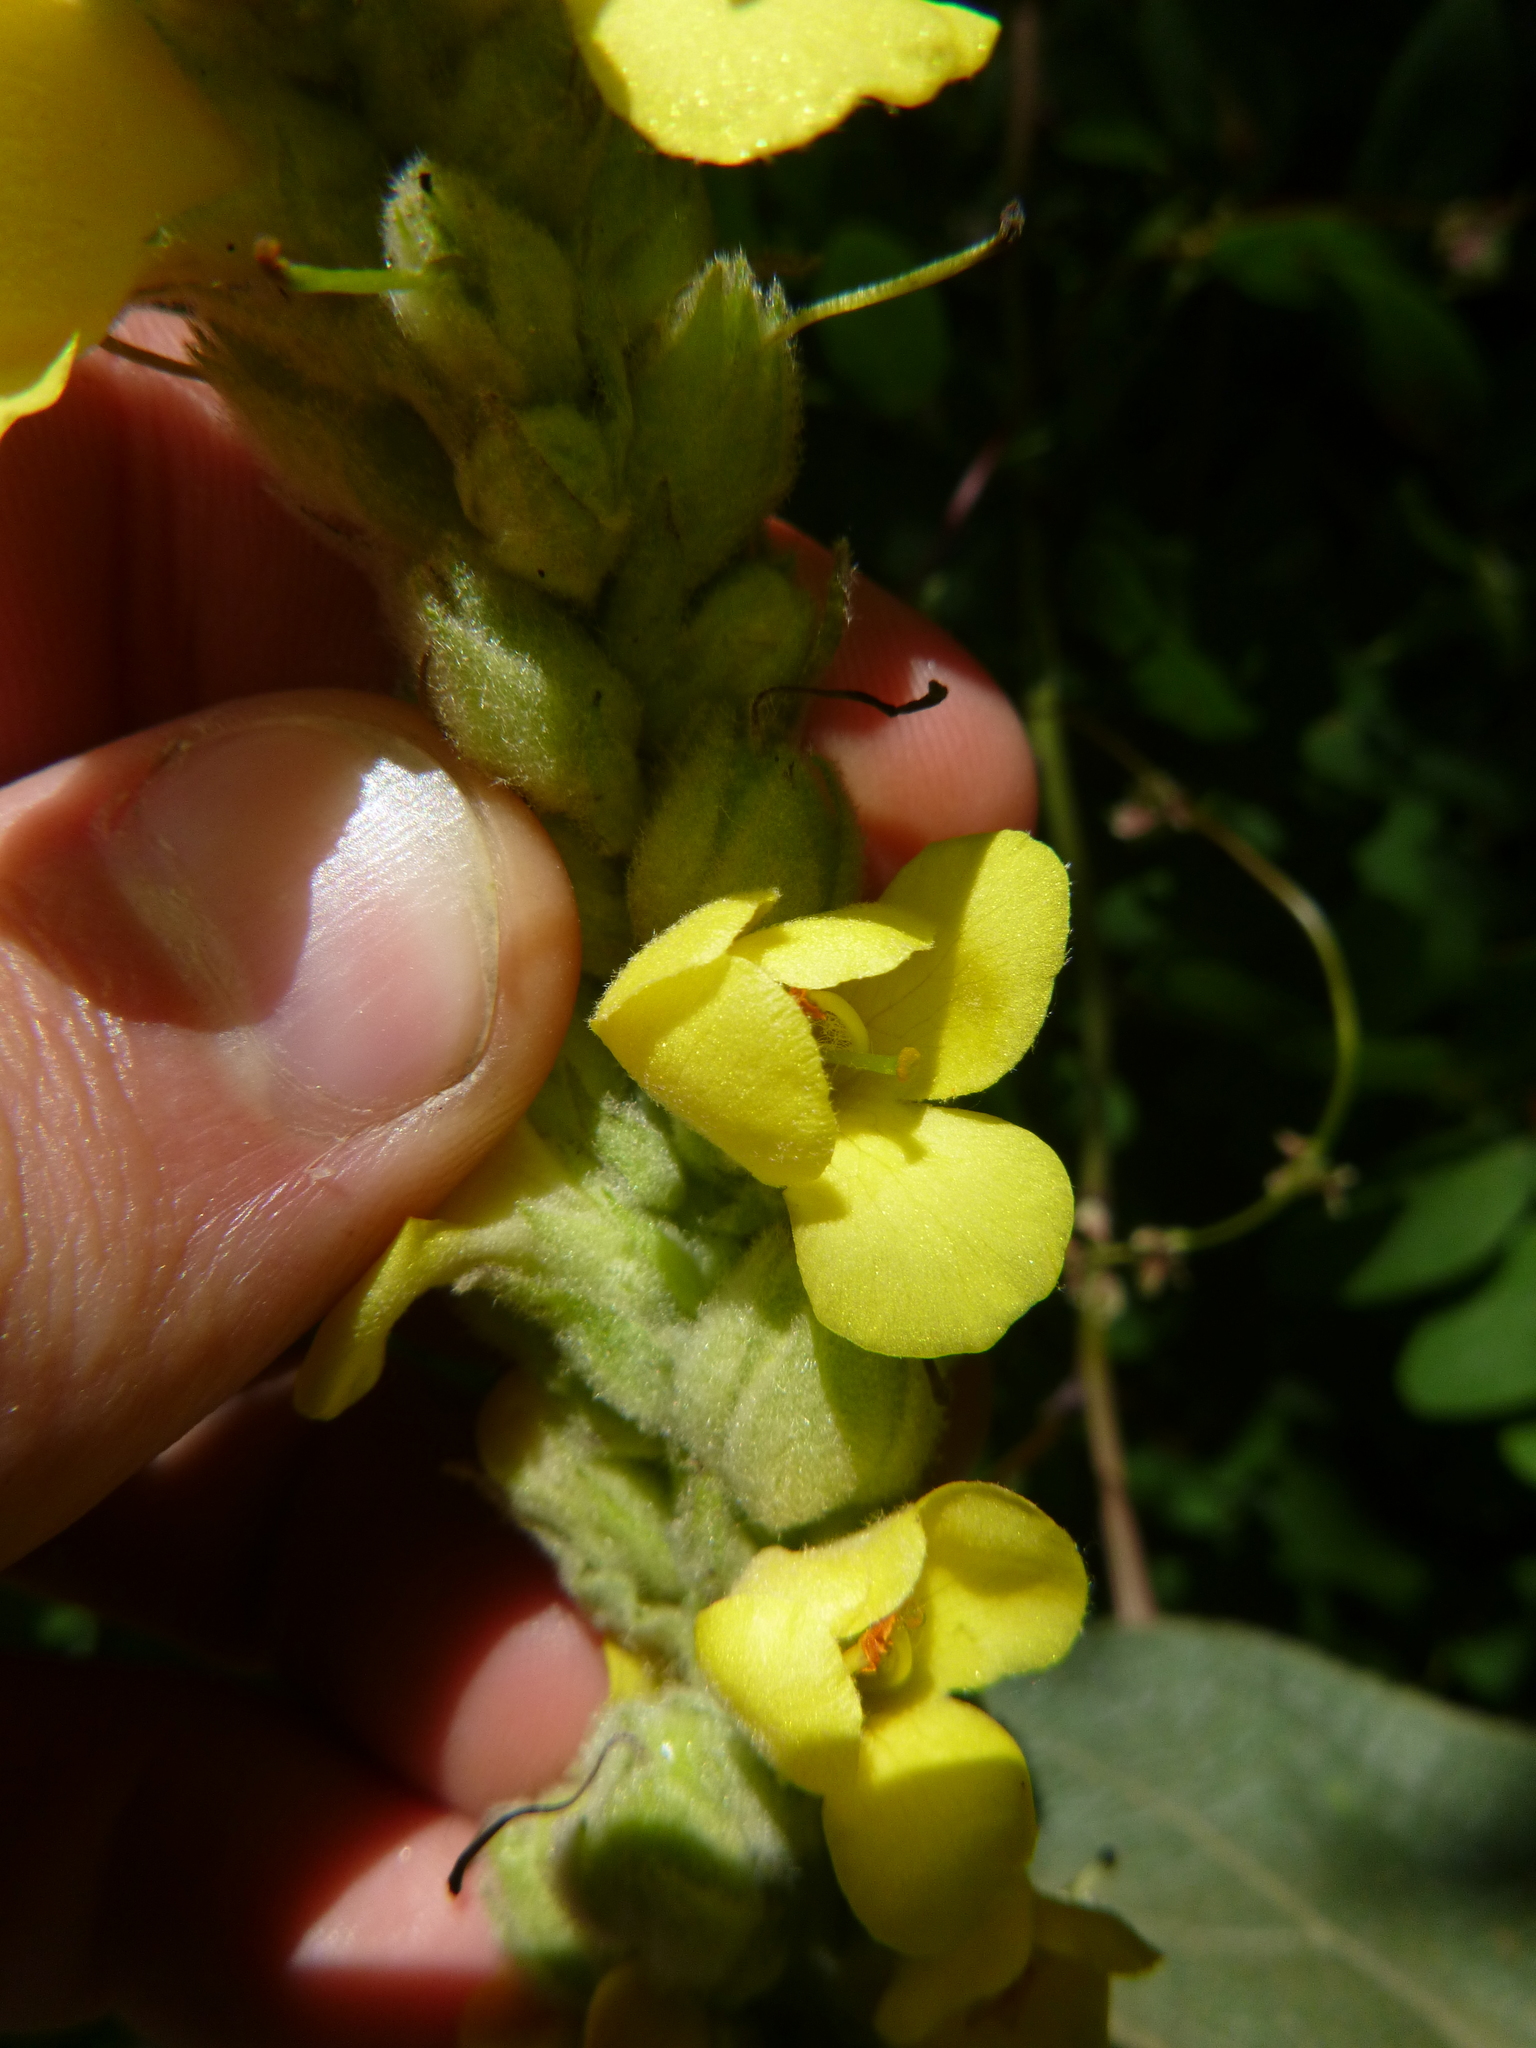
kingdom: Plantae
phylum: Tracheophyta
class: Magnoliopsida
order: Lamiales
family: Scrophulariaceae
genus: Verbascum
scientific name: Verbascum thapsus
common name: Common mullein
